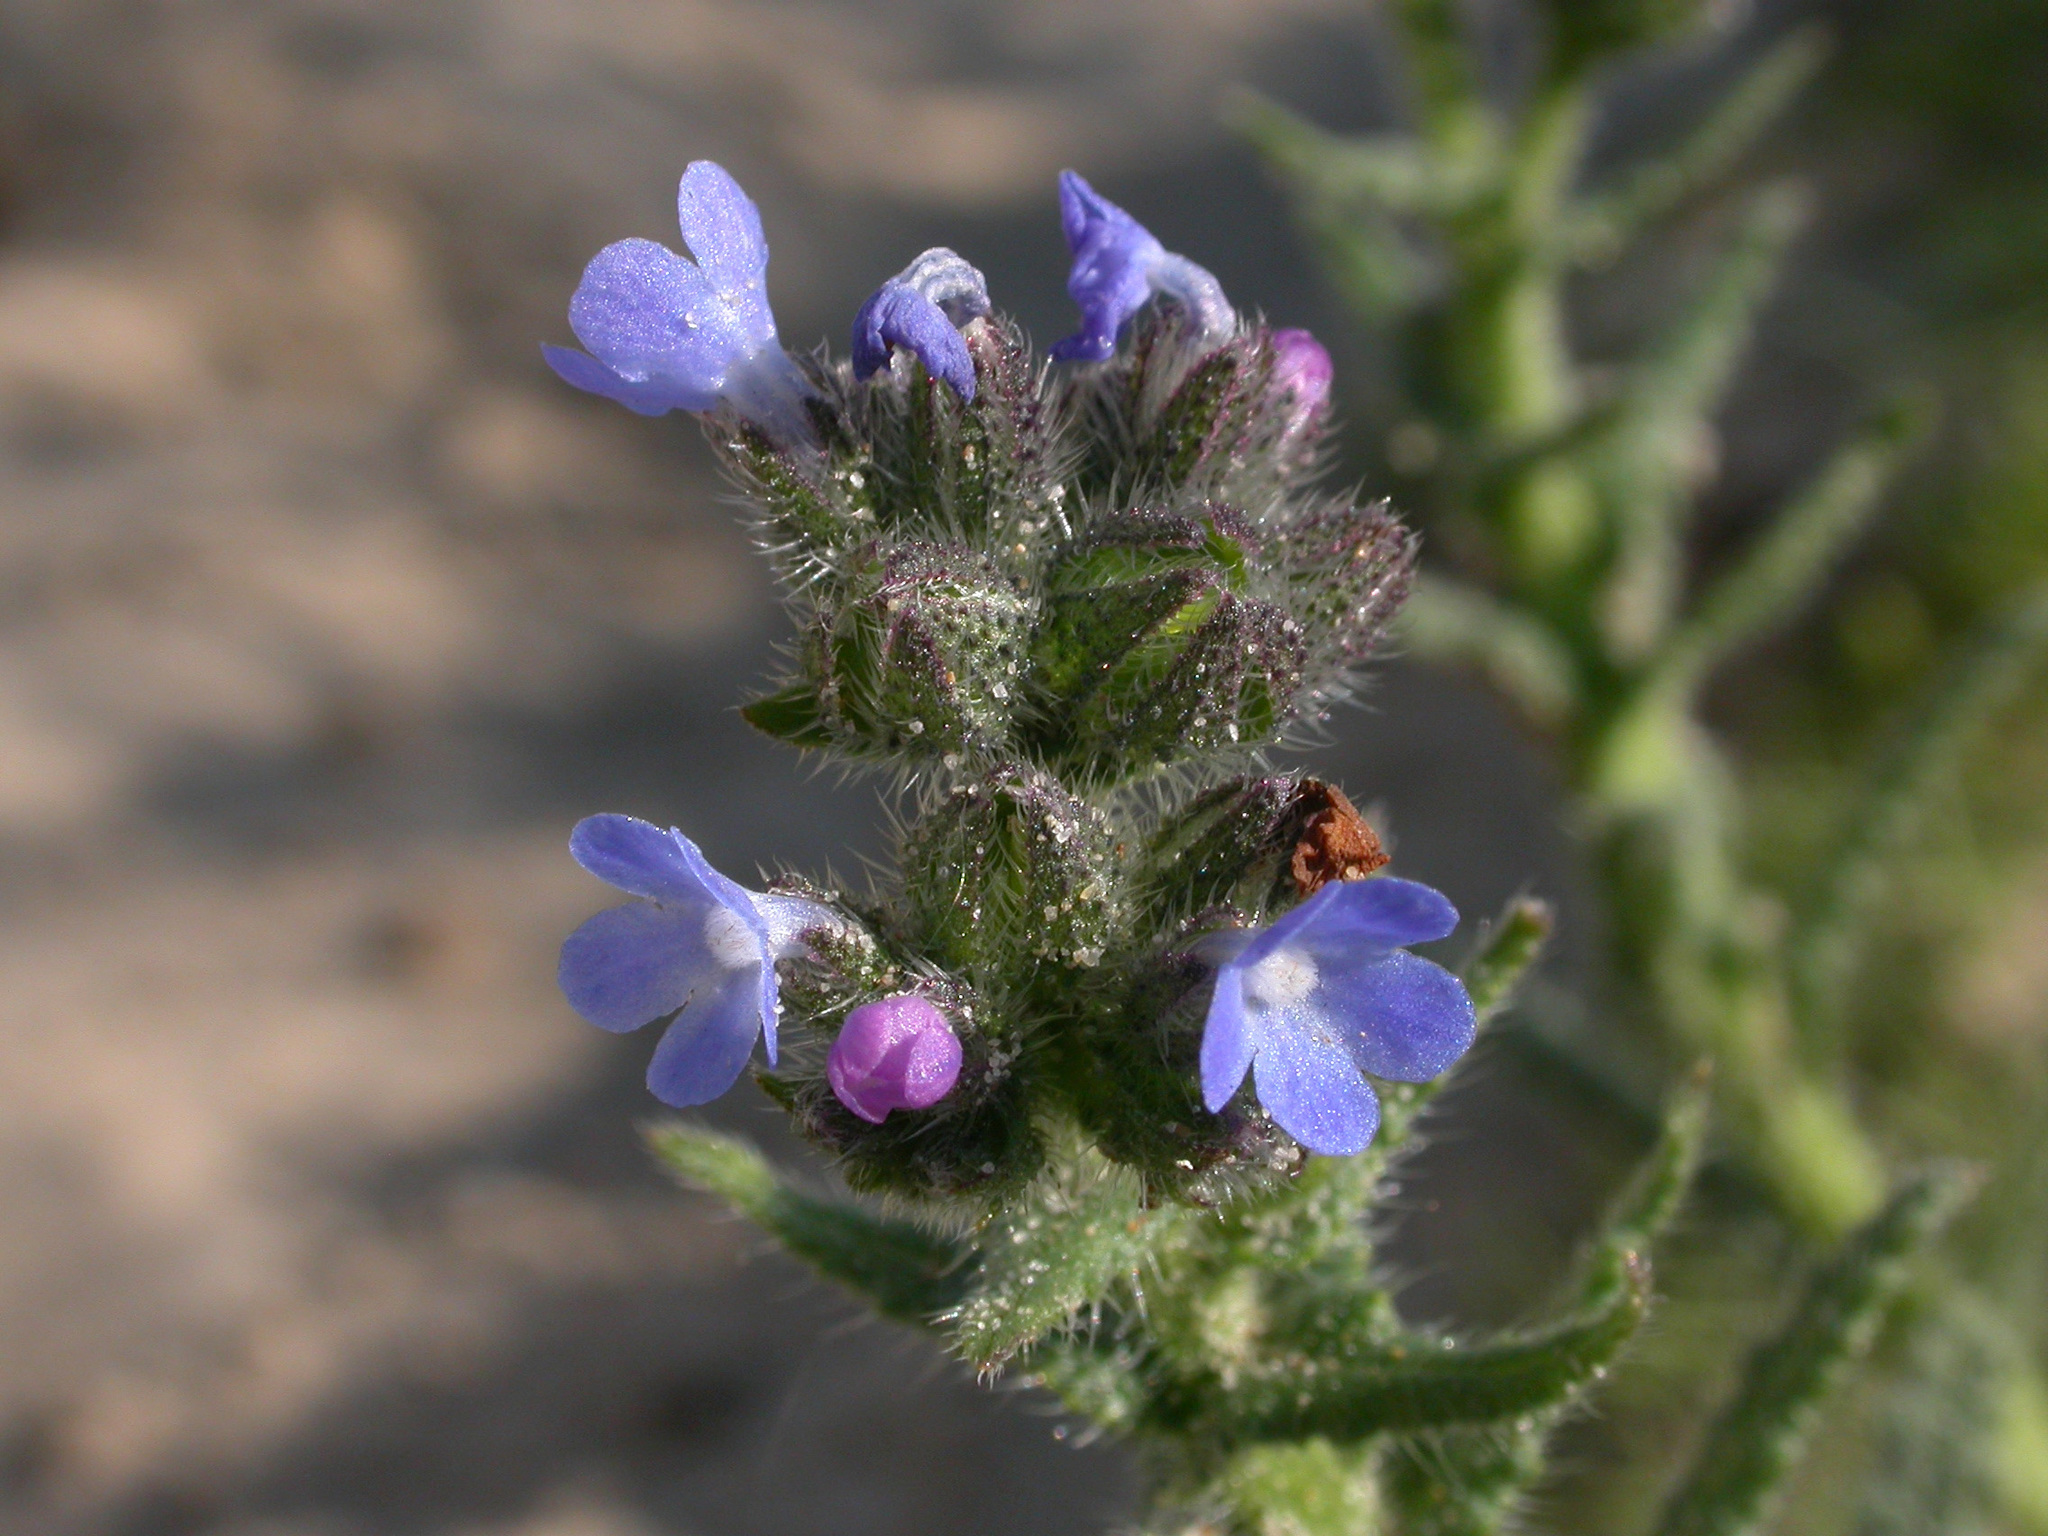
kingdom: Plantae
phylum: Tracheophyta
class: Magnoliopsida
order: Boraginales
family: Boraginaceae
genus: Lycopsis
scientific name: Lycopsis arvensis
